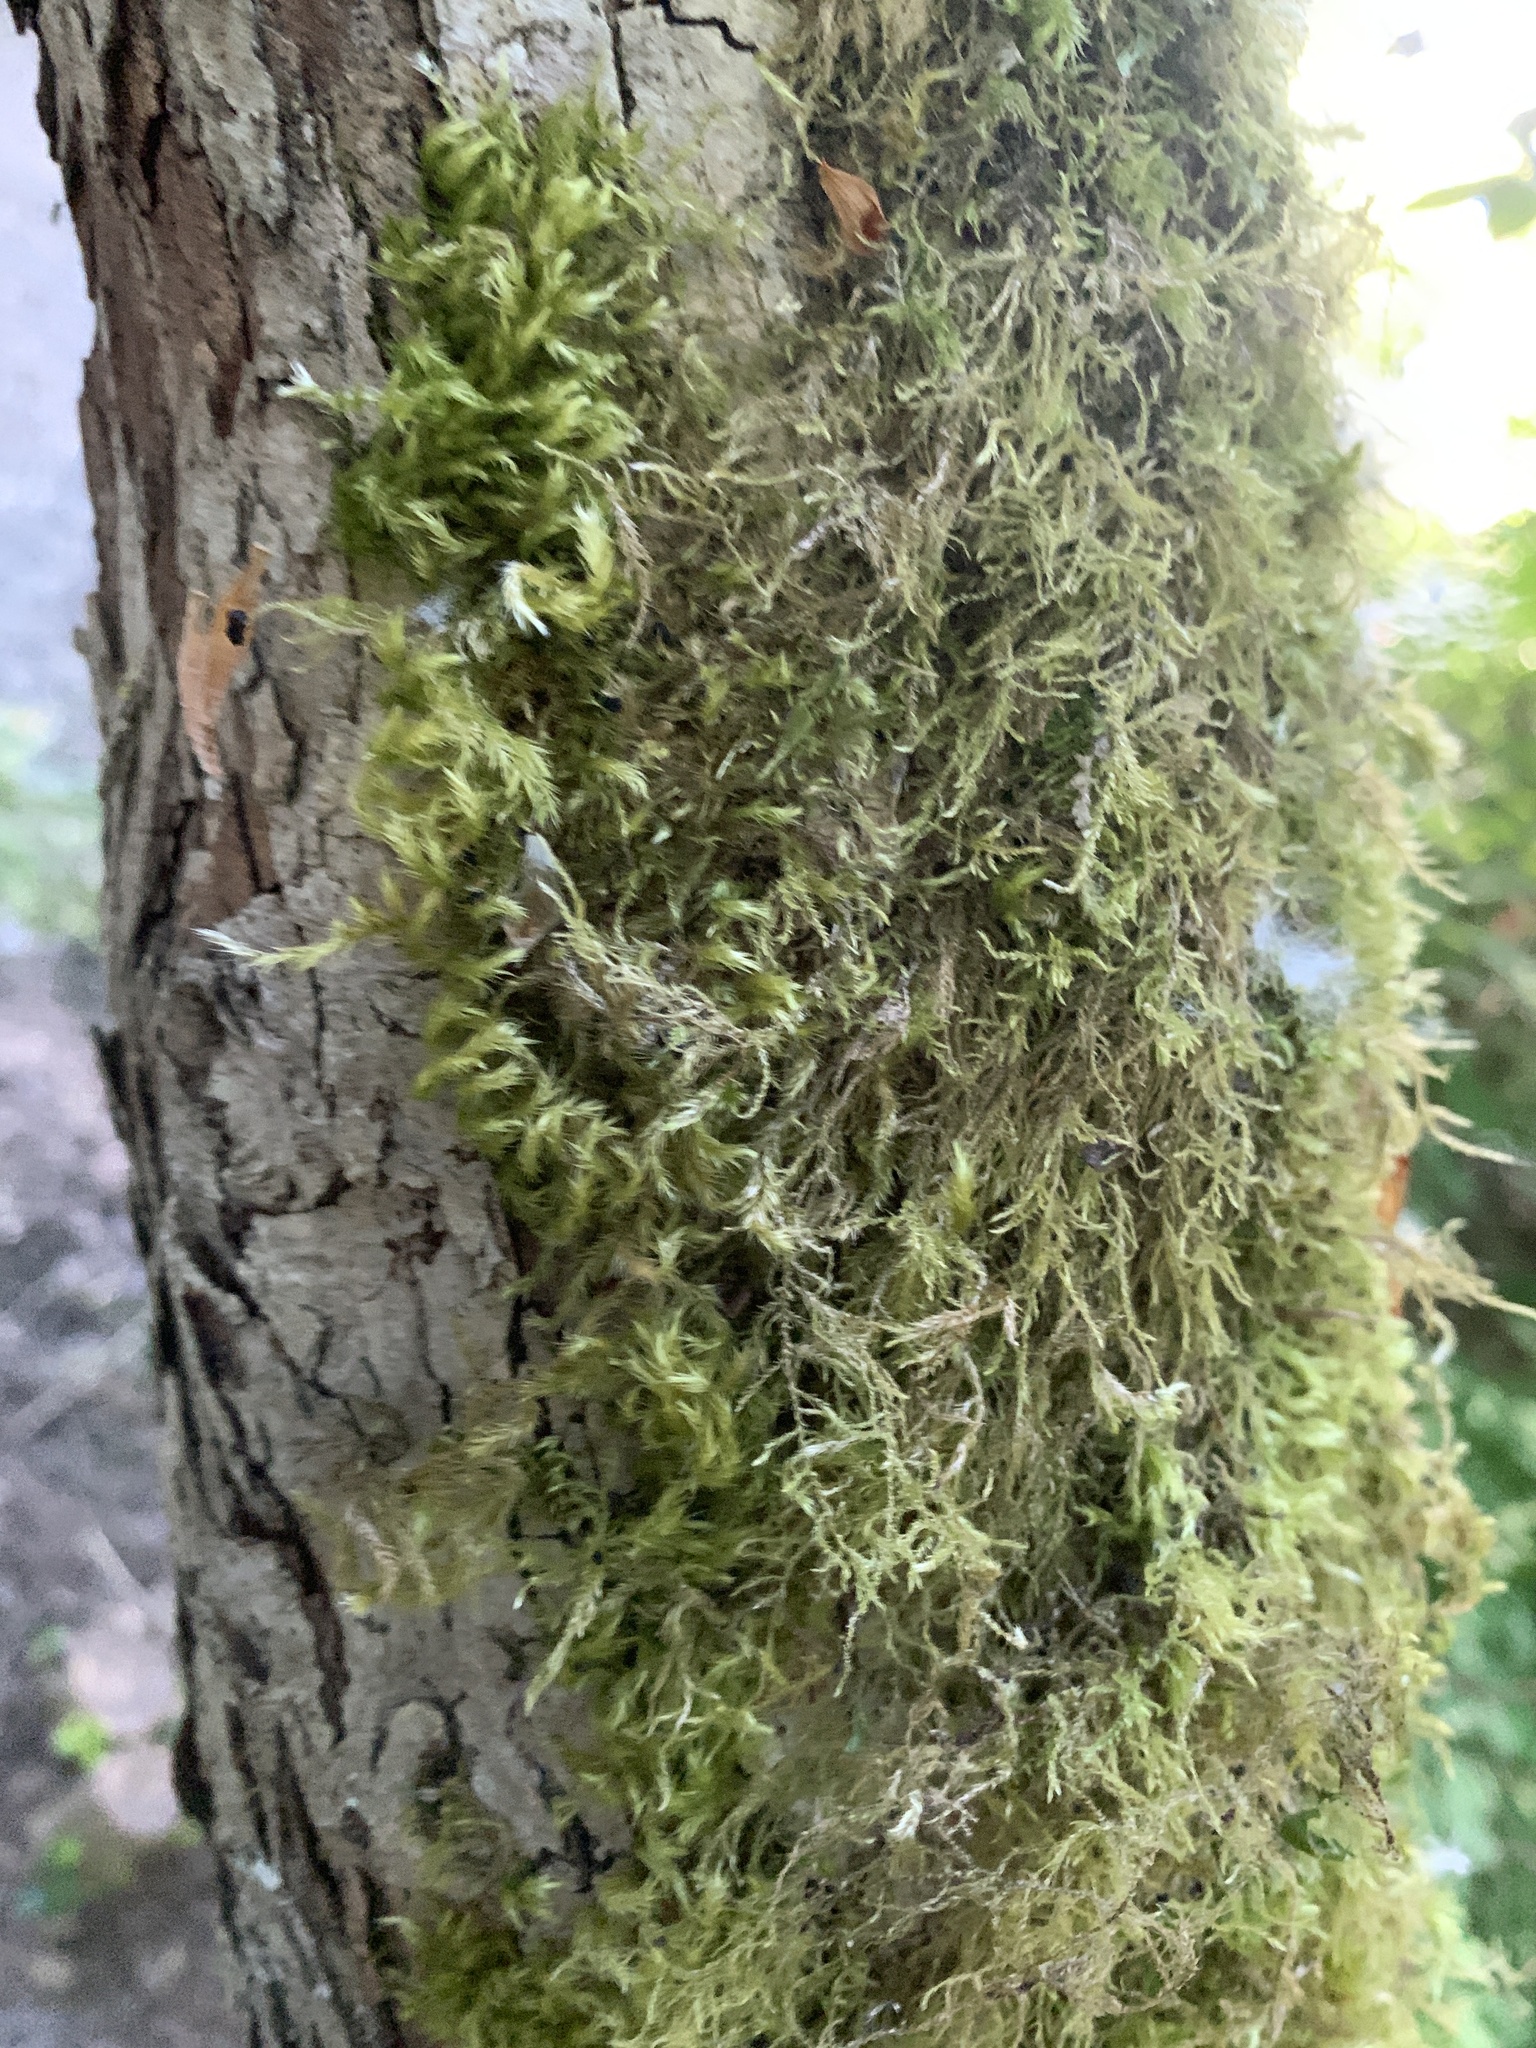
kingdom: Plantae
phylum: Bryophyta
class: Bryopsida
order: Hypnales
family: Lembophyllaceae
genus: Pseudisothecium
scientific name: Pseudisothecium stoloniferum
